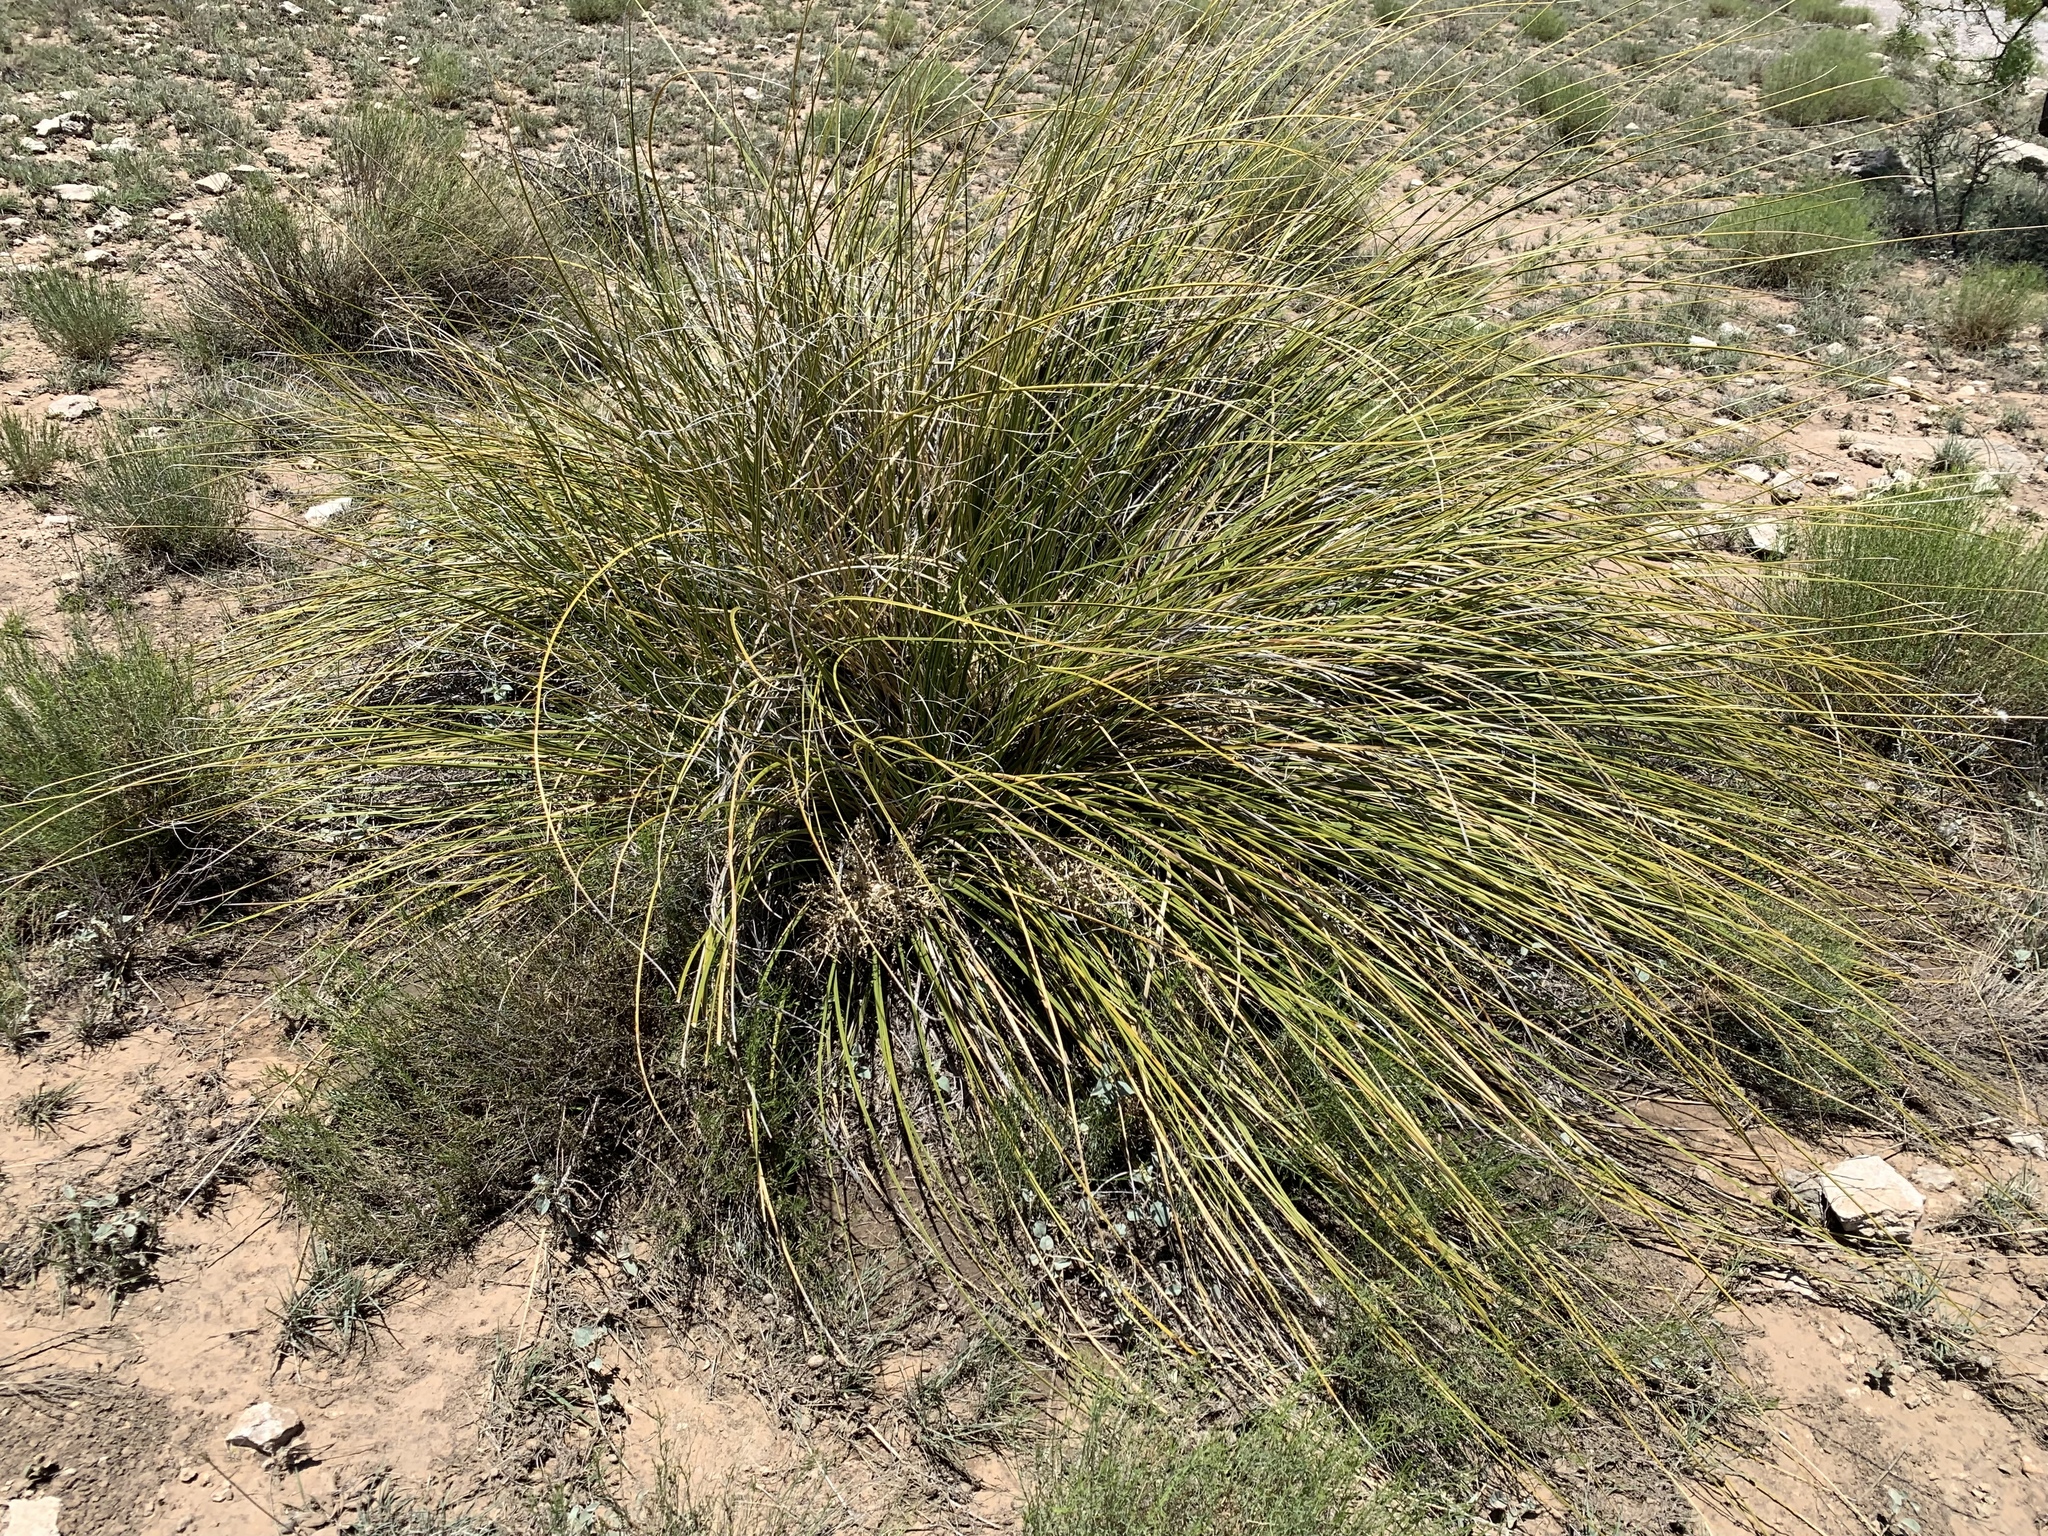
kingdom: Plantae
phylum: Tracheophyta
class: Liliopsida
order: Asparagales
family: Asparagaceae
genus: Nolina
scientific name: Nolina texana
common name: Texas sacahuiste
